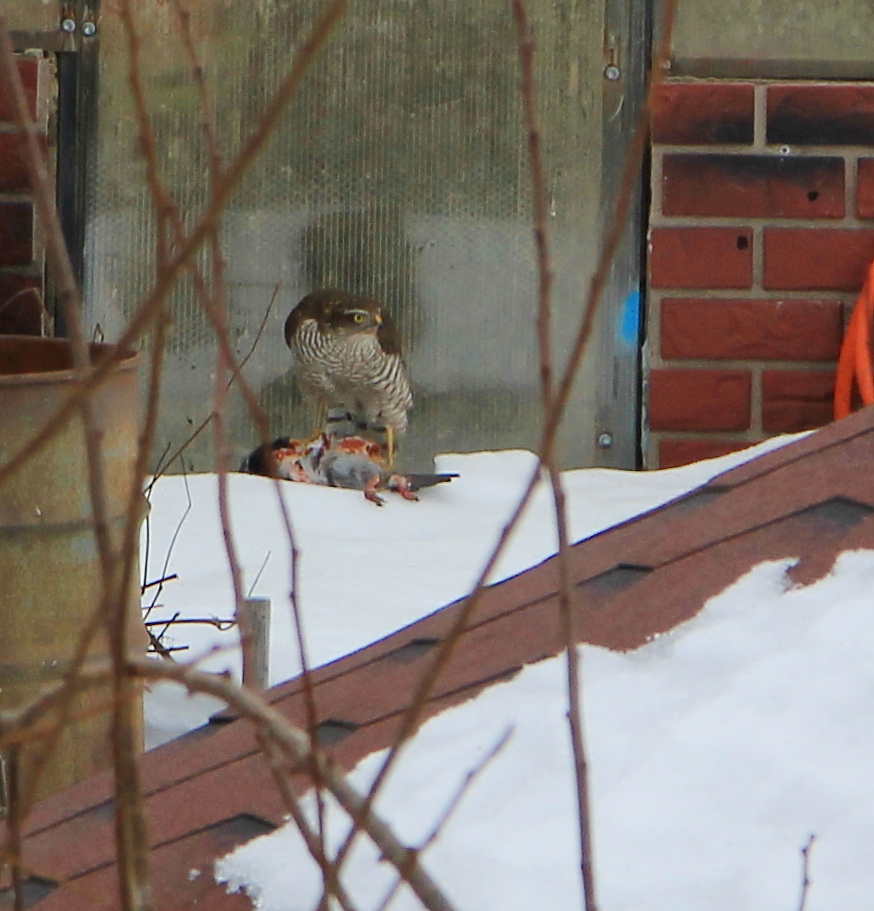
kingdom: Animalia
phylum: Chordata
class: Aves
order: Accipitriformes
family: Accipitridae
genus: Accipiter
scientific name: Accipiter nisus
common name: Eurasian sparrowhawk
